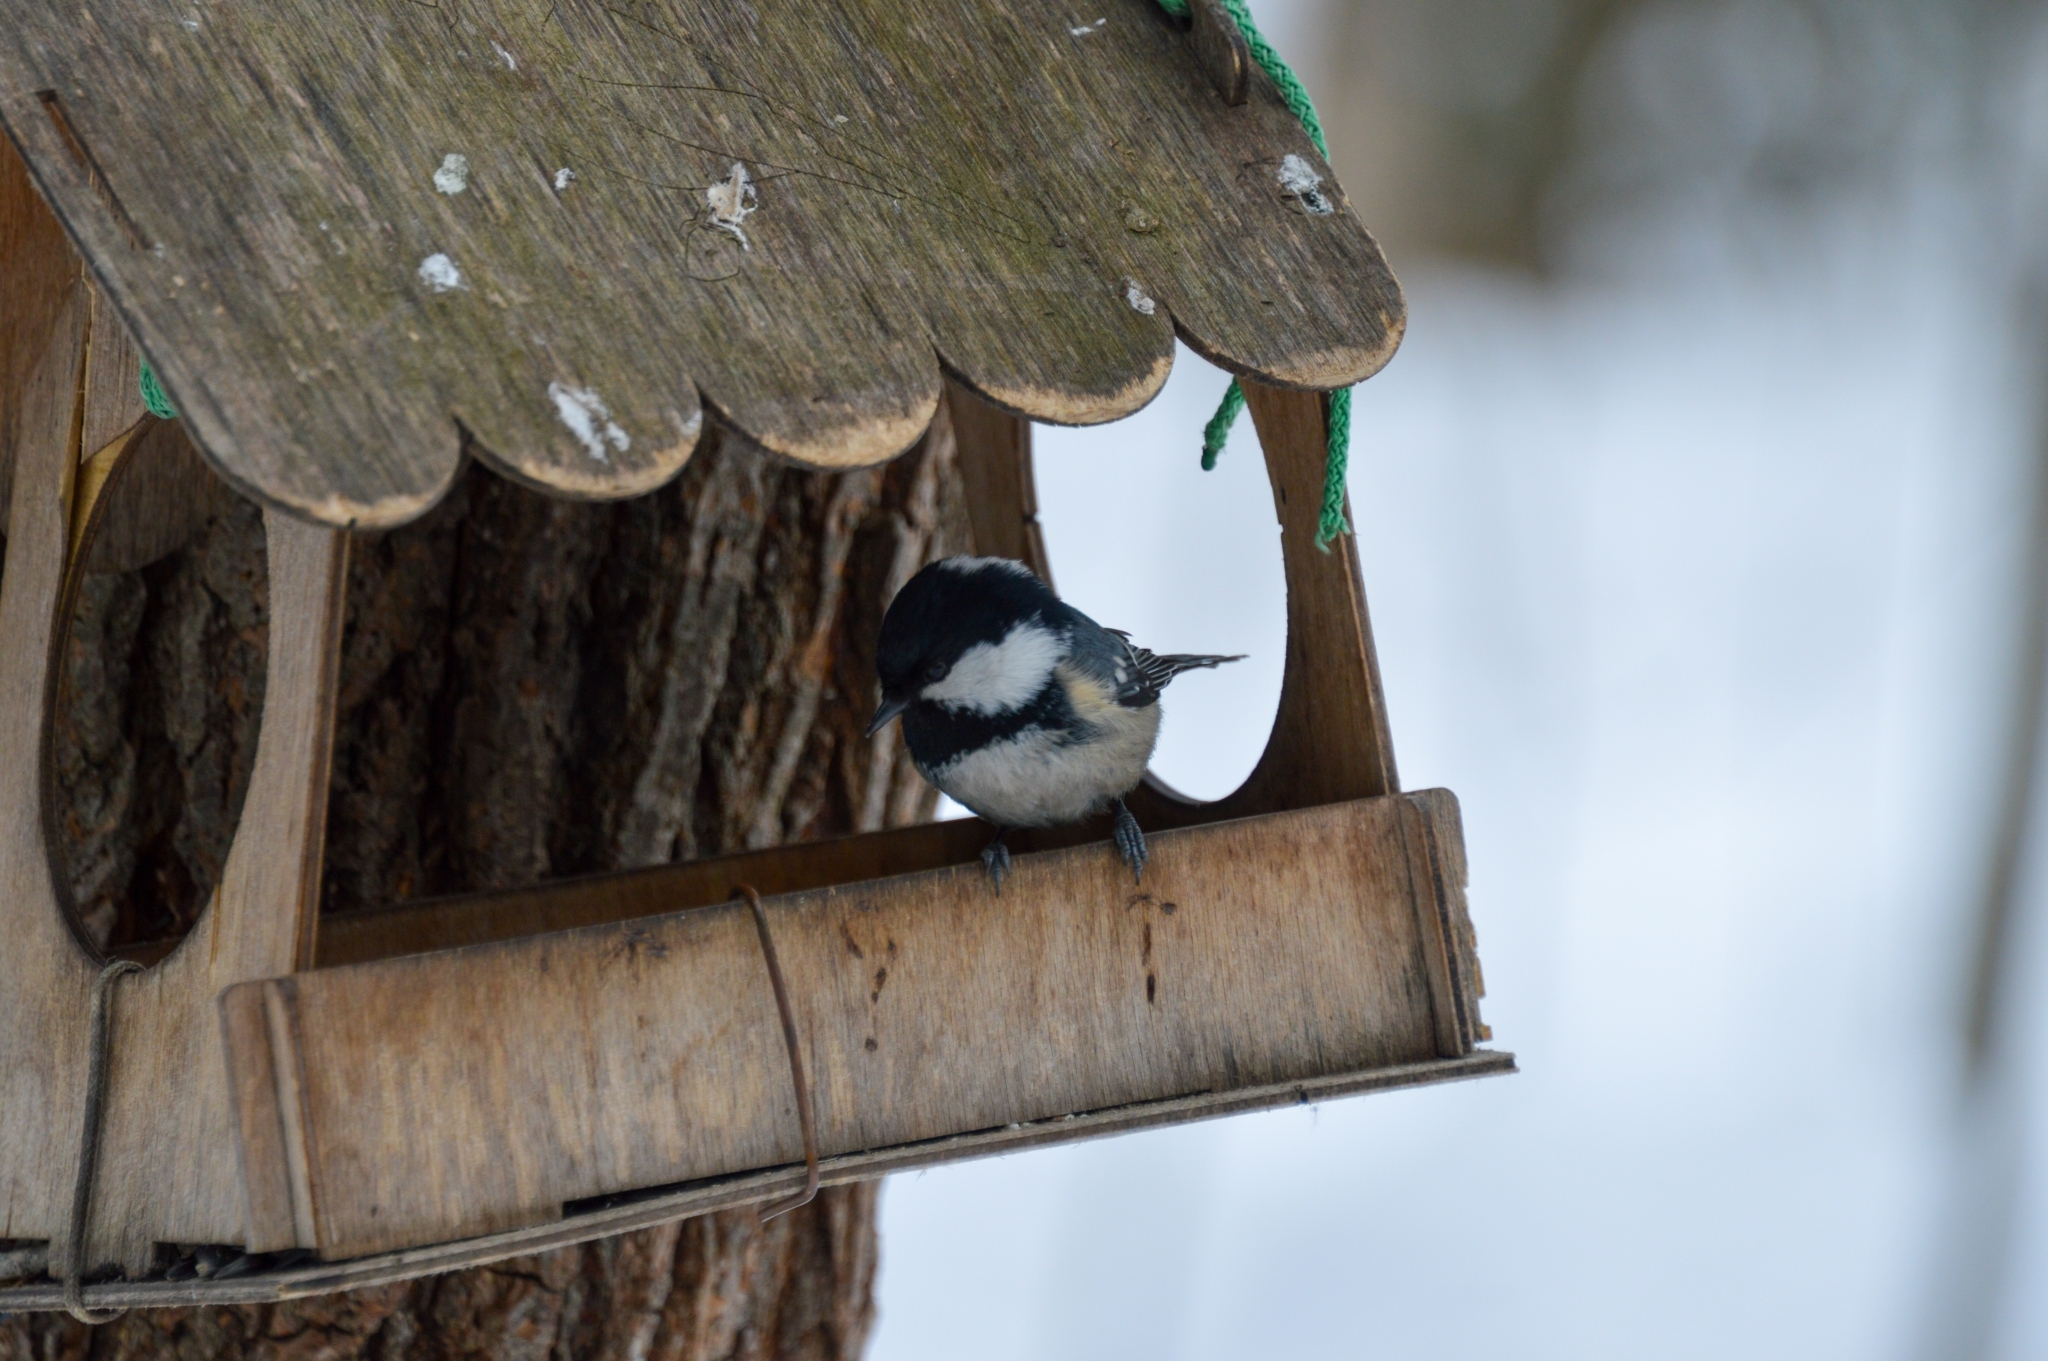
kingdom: Animalia
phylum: Chordata
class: Aves
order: Passeriformes
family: Paridae
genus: Periparus
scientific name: Periparus ater
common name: Coal tit
